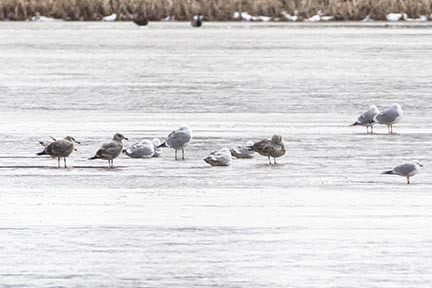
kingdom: Animalia
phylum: Chordata
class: Aves
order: Charadriiformes
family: Laridae
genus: Larus
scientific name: Larus delawarensis
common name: Ring-billed gull
